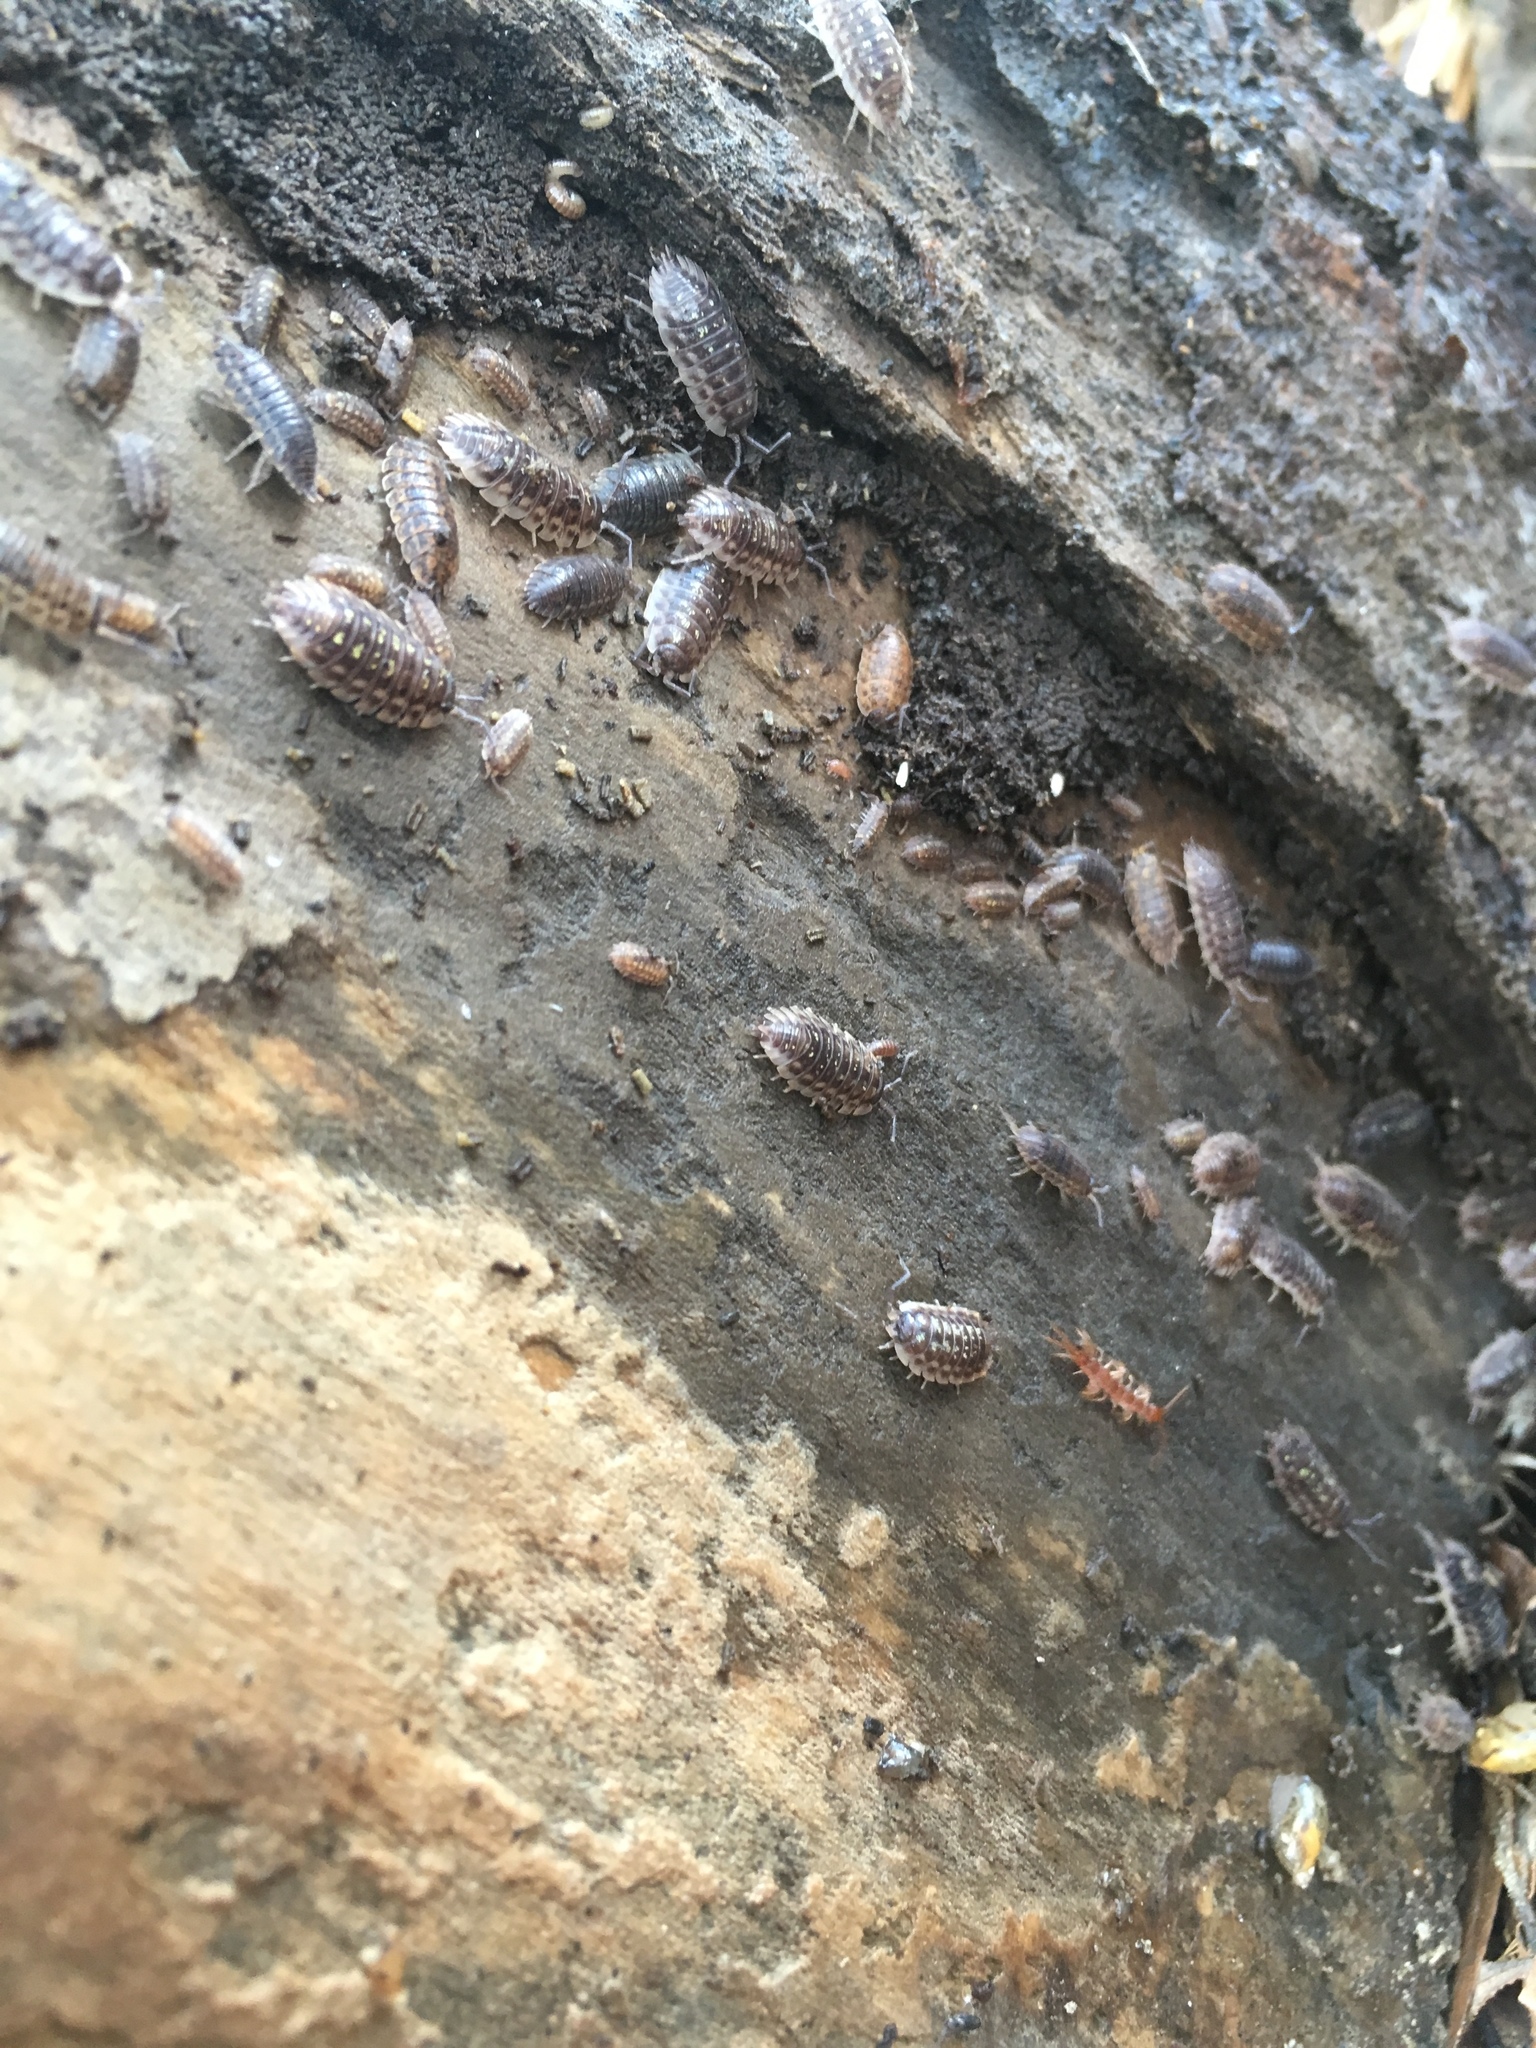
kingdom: Animalia
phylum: Arthropoda
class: Malacostraca
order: Isopoda
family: Oniscidae
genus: Oniscus
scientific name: Oniscus asellus
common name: Common shiny woodlouse
